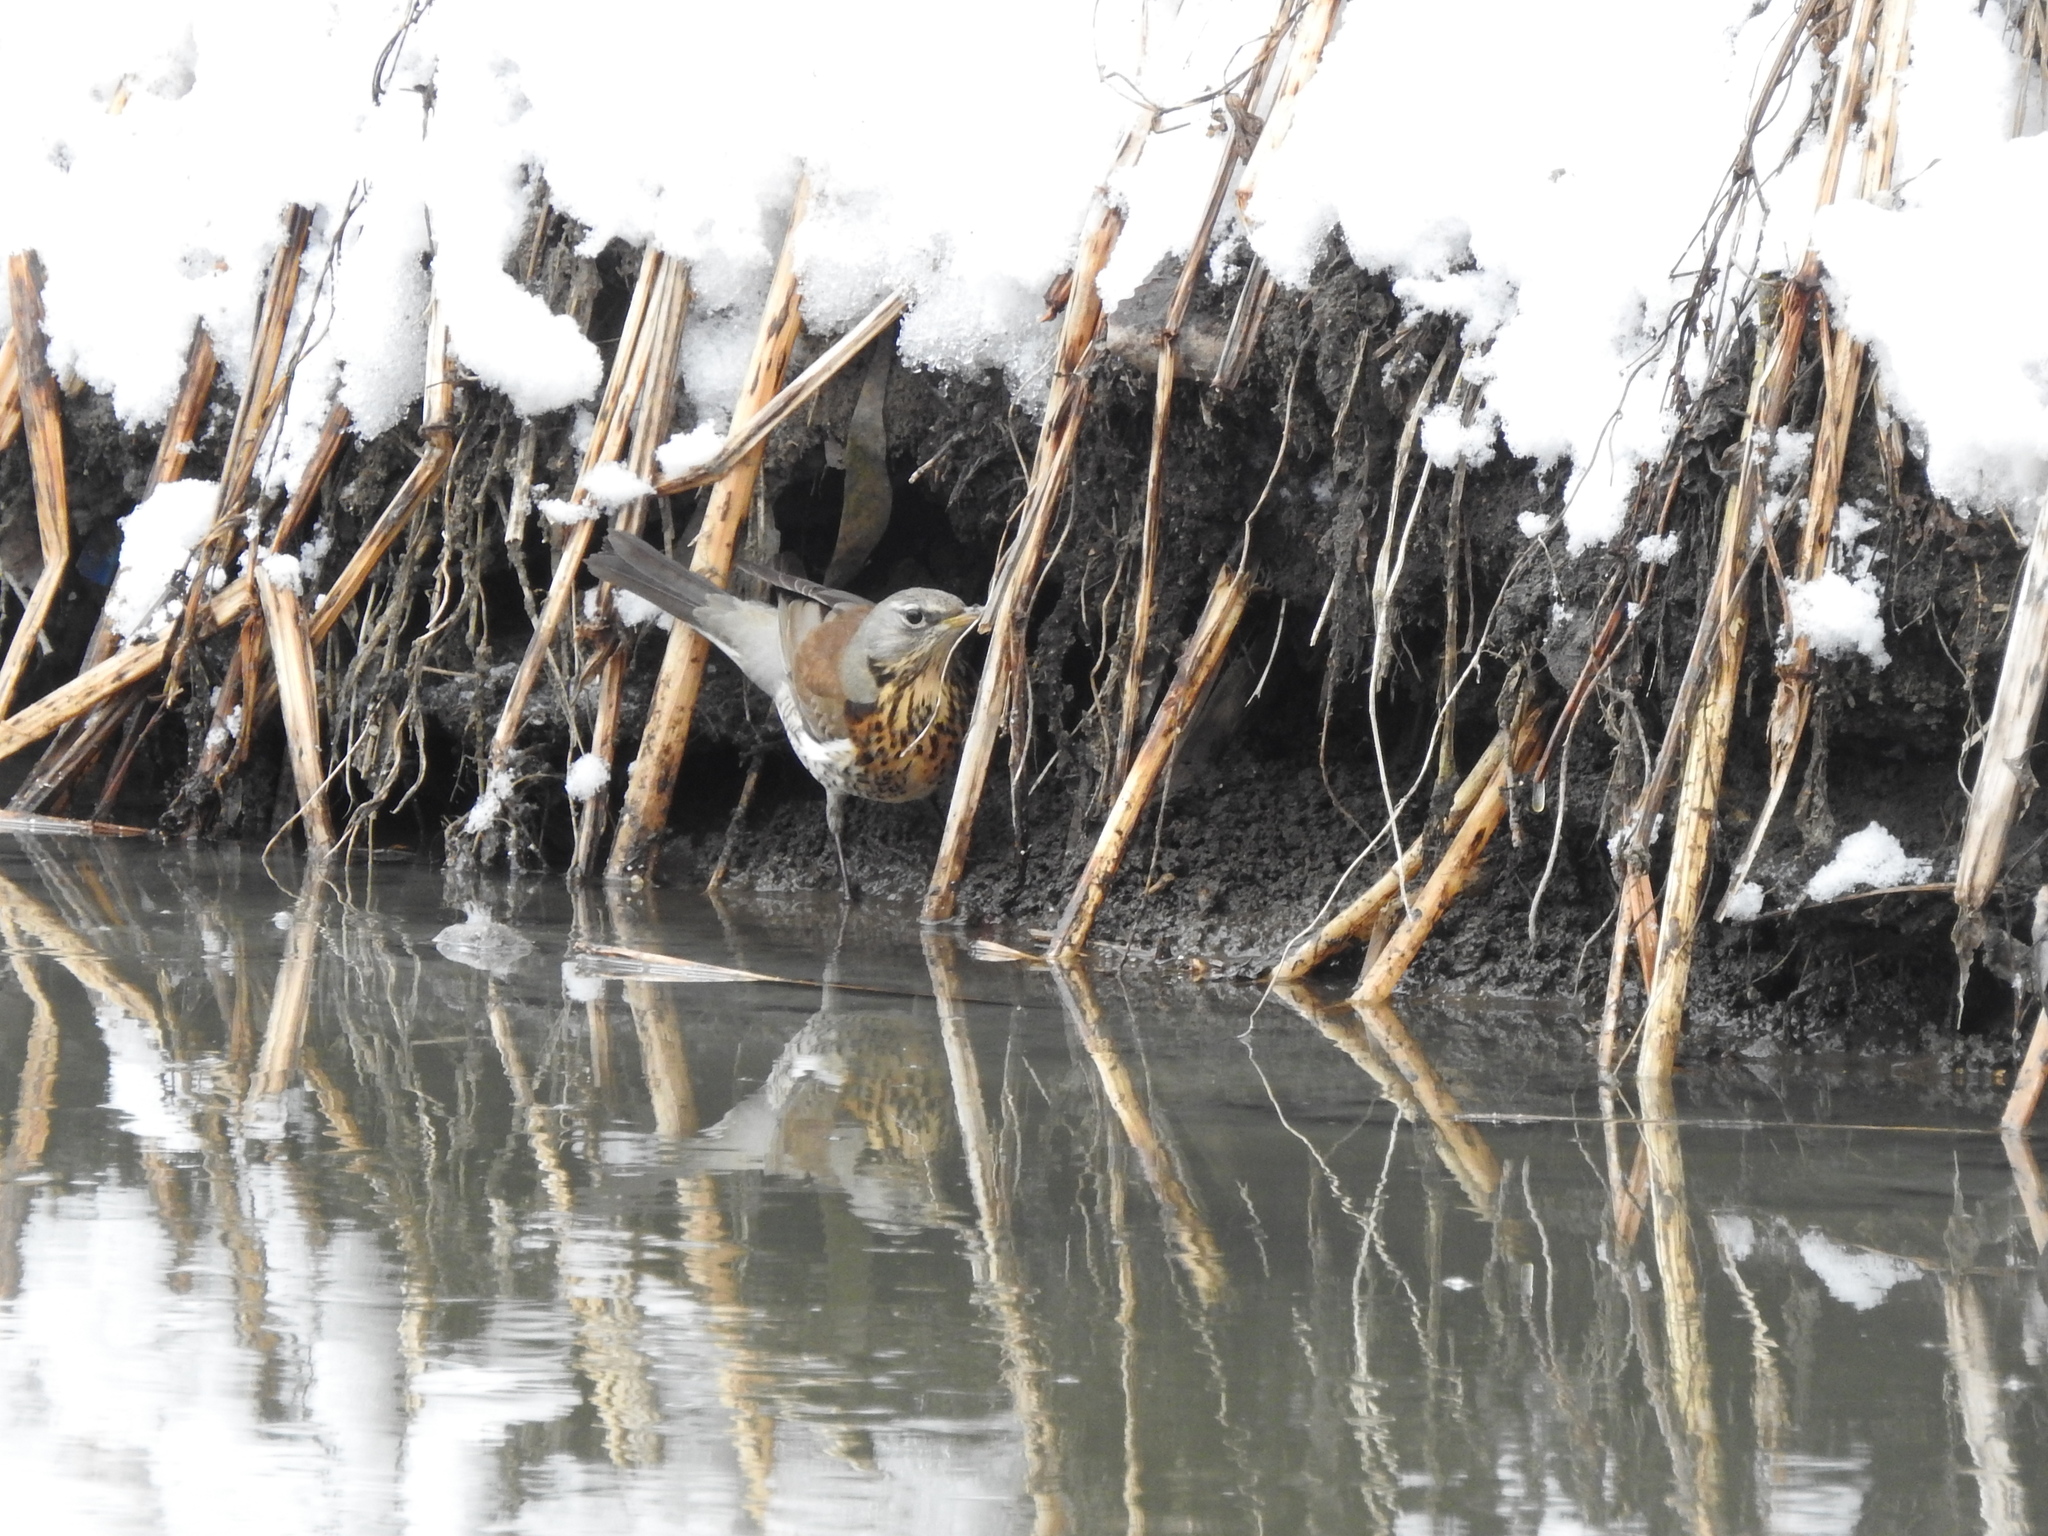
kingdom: Animalia
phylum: Chordata
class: Aves
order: Passeriformes
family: Turdidae
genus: Turdus
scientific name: Turdus pilaris
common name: Fieldfare
